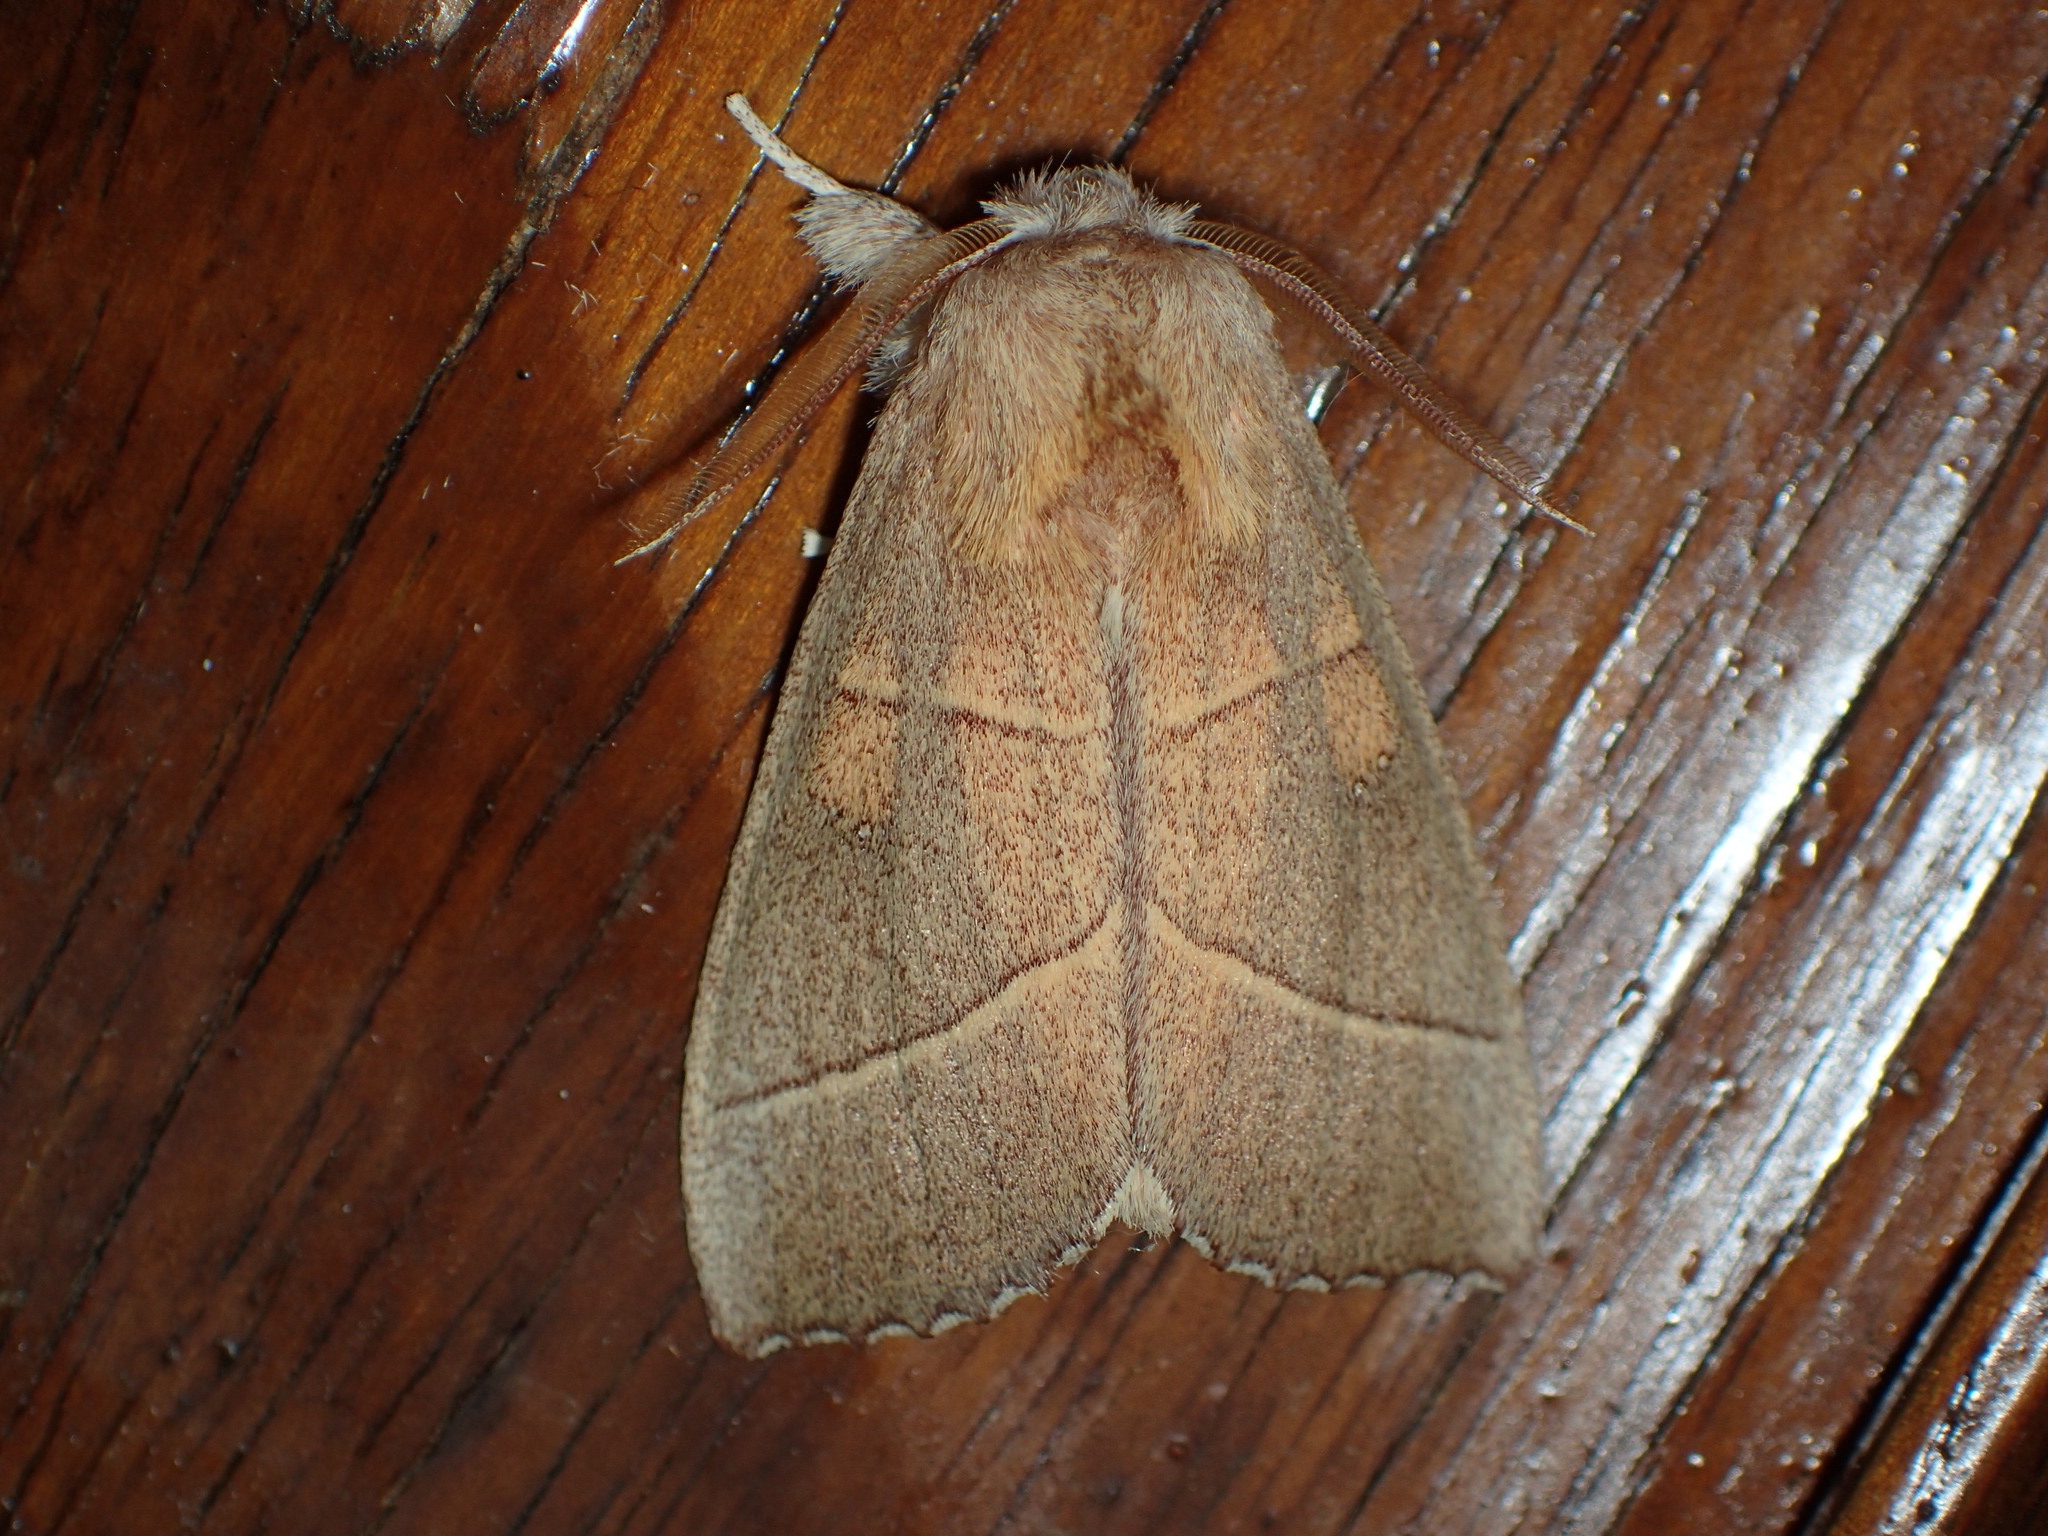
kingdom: Animalia
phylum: Arthropoda
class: Insecta
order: Lepidoptera
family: Notodontidae
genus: Nadata
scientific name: Nadata gibbosa
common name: White-dotted prominent
